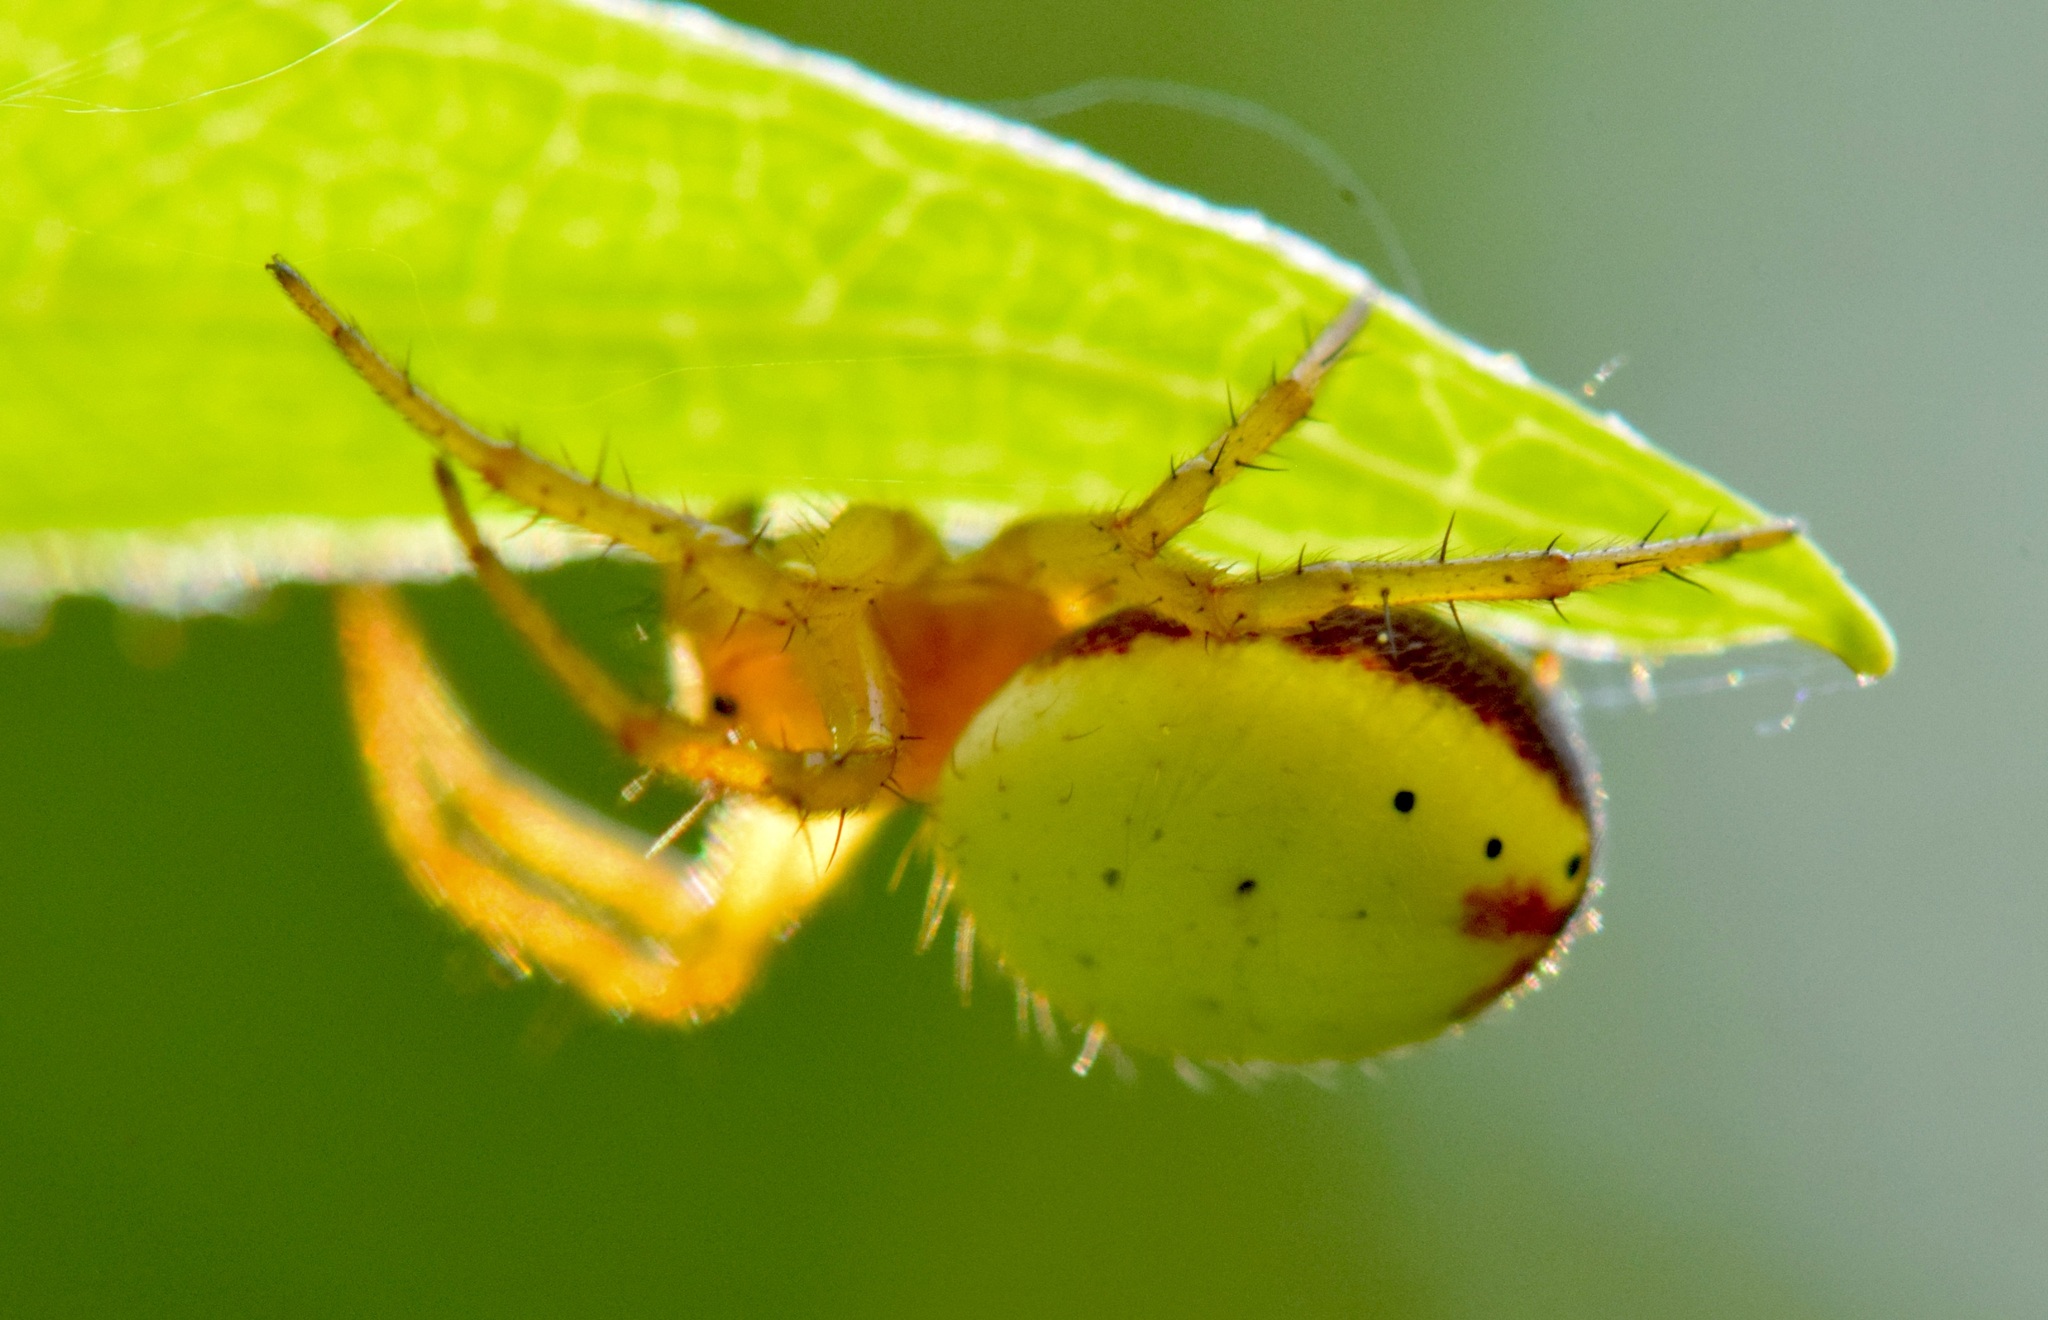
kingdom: Animalia
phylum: Arthropoda
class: Arachnida
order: Araneae
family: Araneidae
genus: Araniella
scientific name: Araniella displicata
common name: Sixspotted orb weaver
